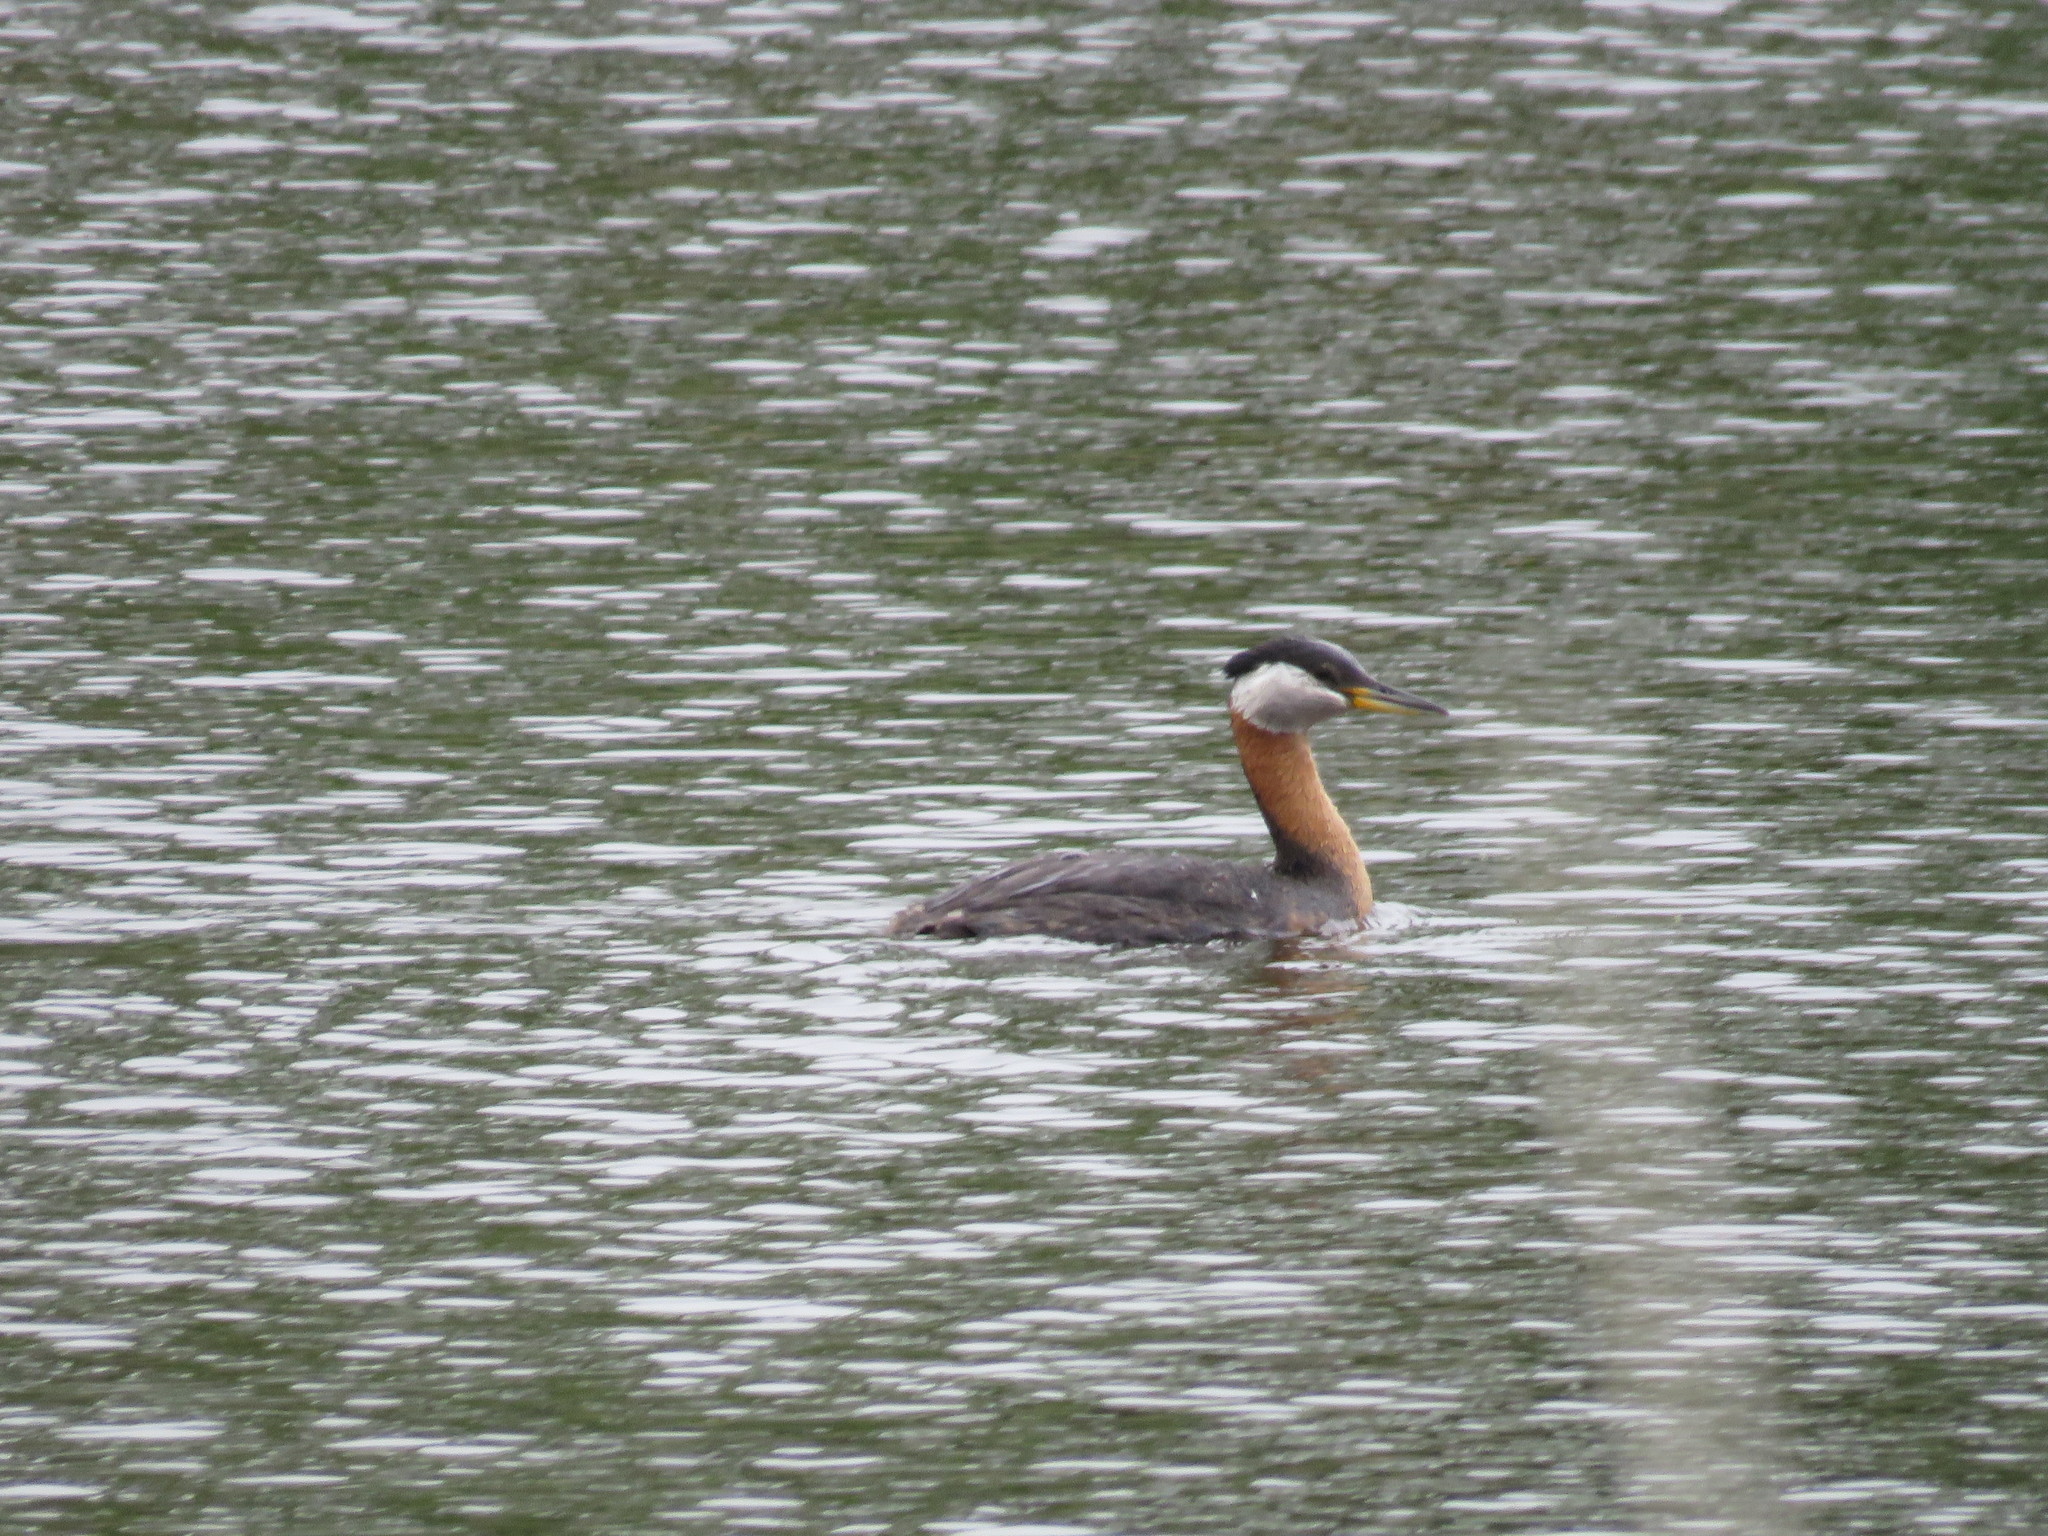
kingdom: Animalia
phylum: Chordata
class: Aves
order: Podicipediformes
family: Podicipedidae
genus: Podiceps
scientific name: Podiceps grisegena
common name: Red-necked grebe
